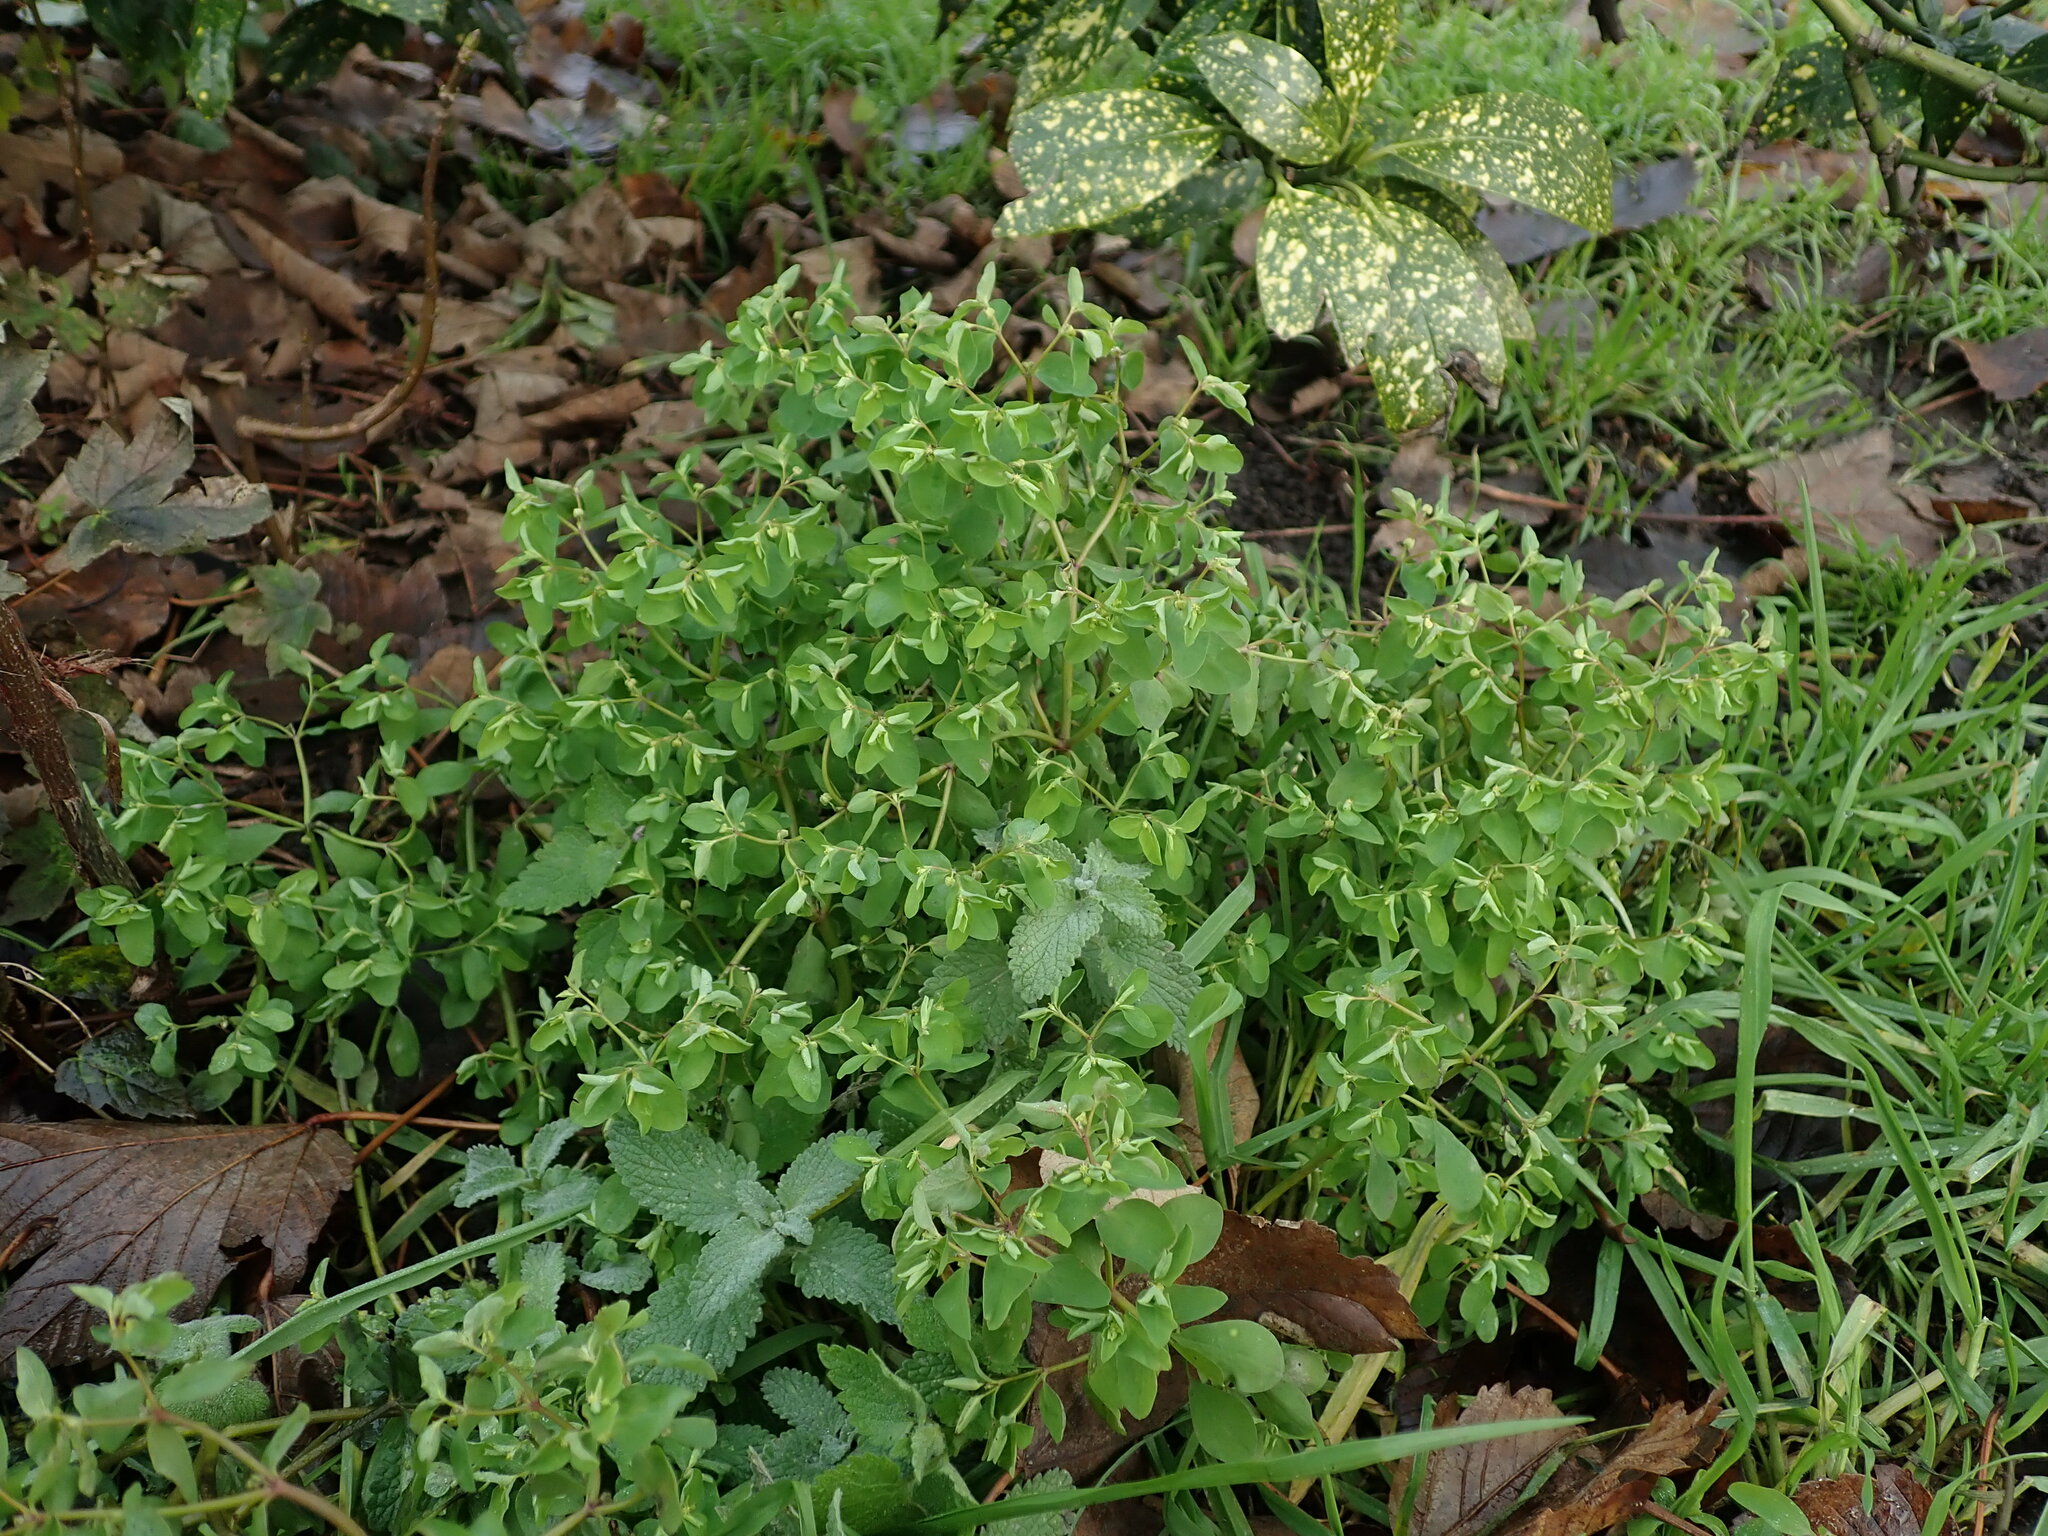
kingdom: Plantae
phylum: Tracheophyta
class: Magnoliopsida
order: Malpighiales
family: Euphorbiaceae
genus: Euphorbia
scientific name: Euphorbia peplus
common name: Petty spurge
